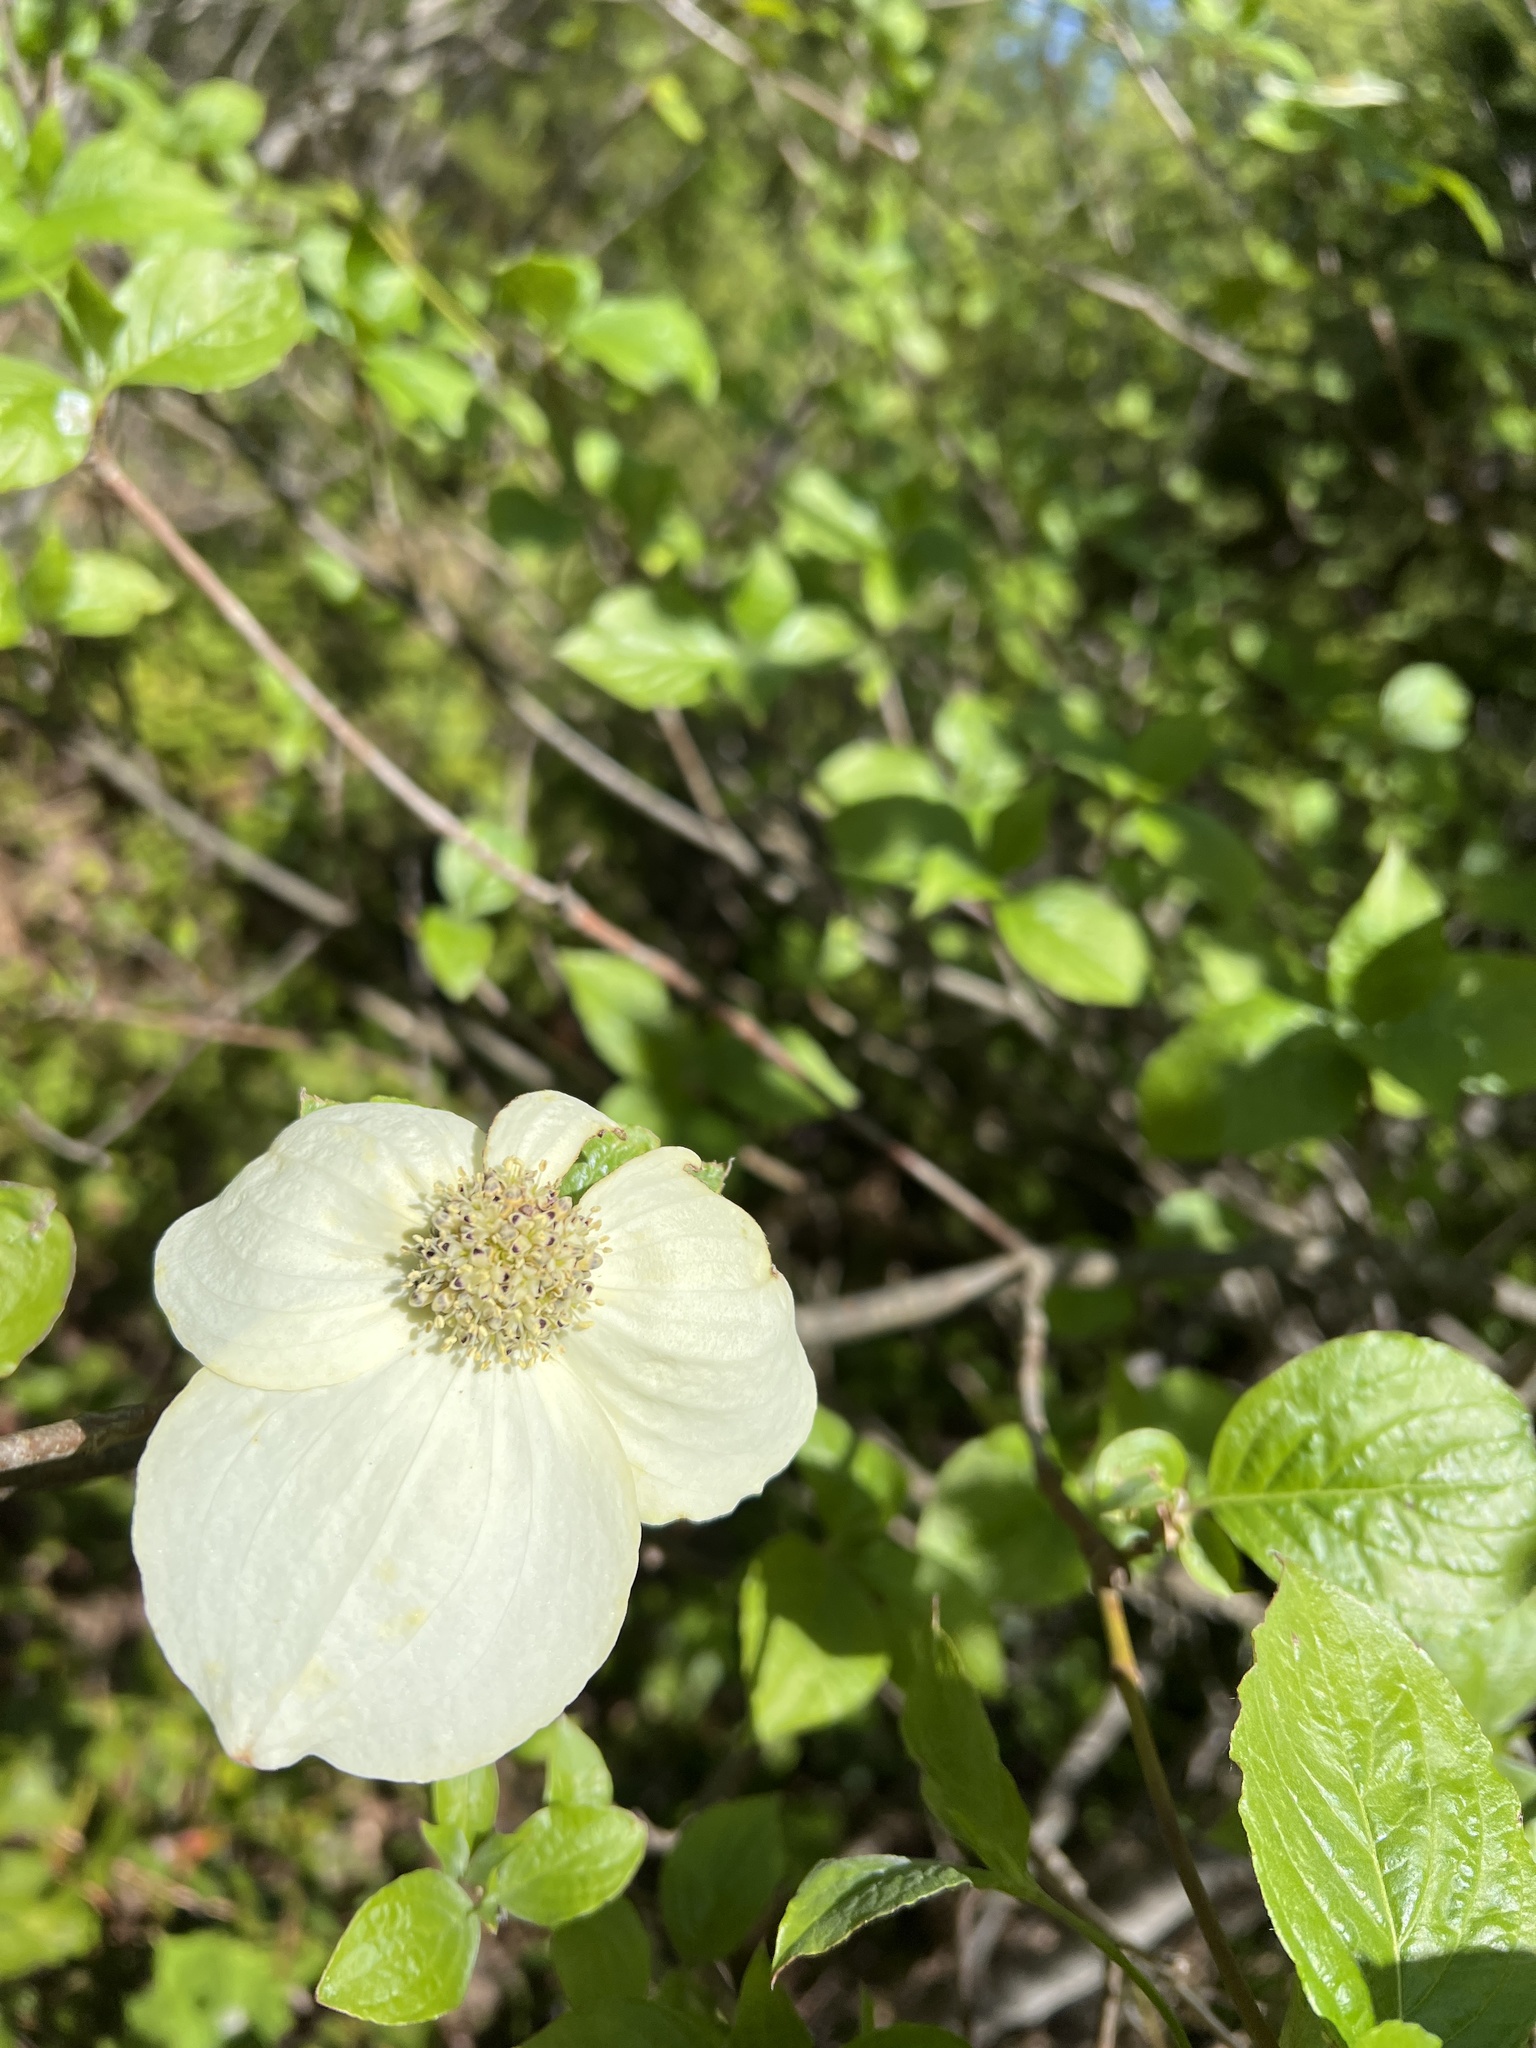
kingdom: Plantae
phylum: Tracheophyta
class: Magnoliopsida
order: Cornales
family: Cornaceae
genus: Cornus
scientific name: Cornus nuttallii
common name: Pacific dogwood
